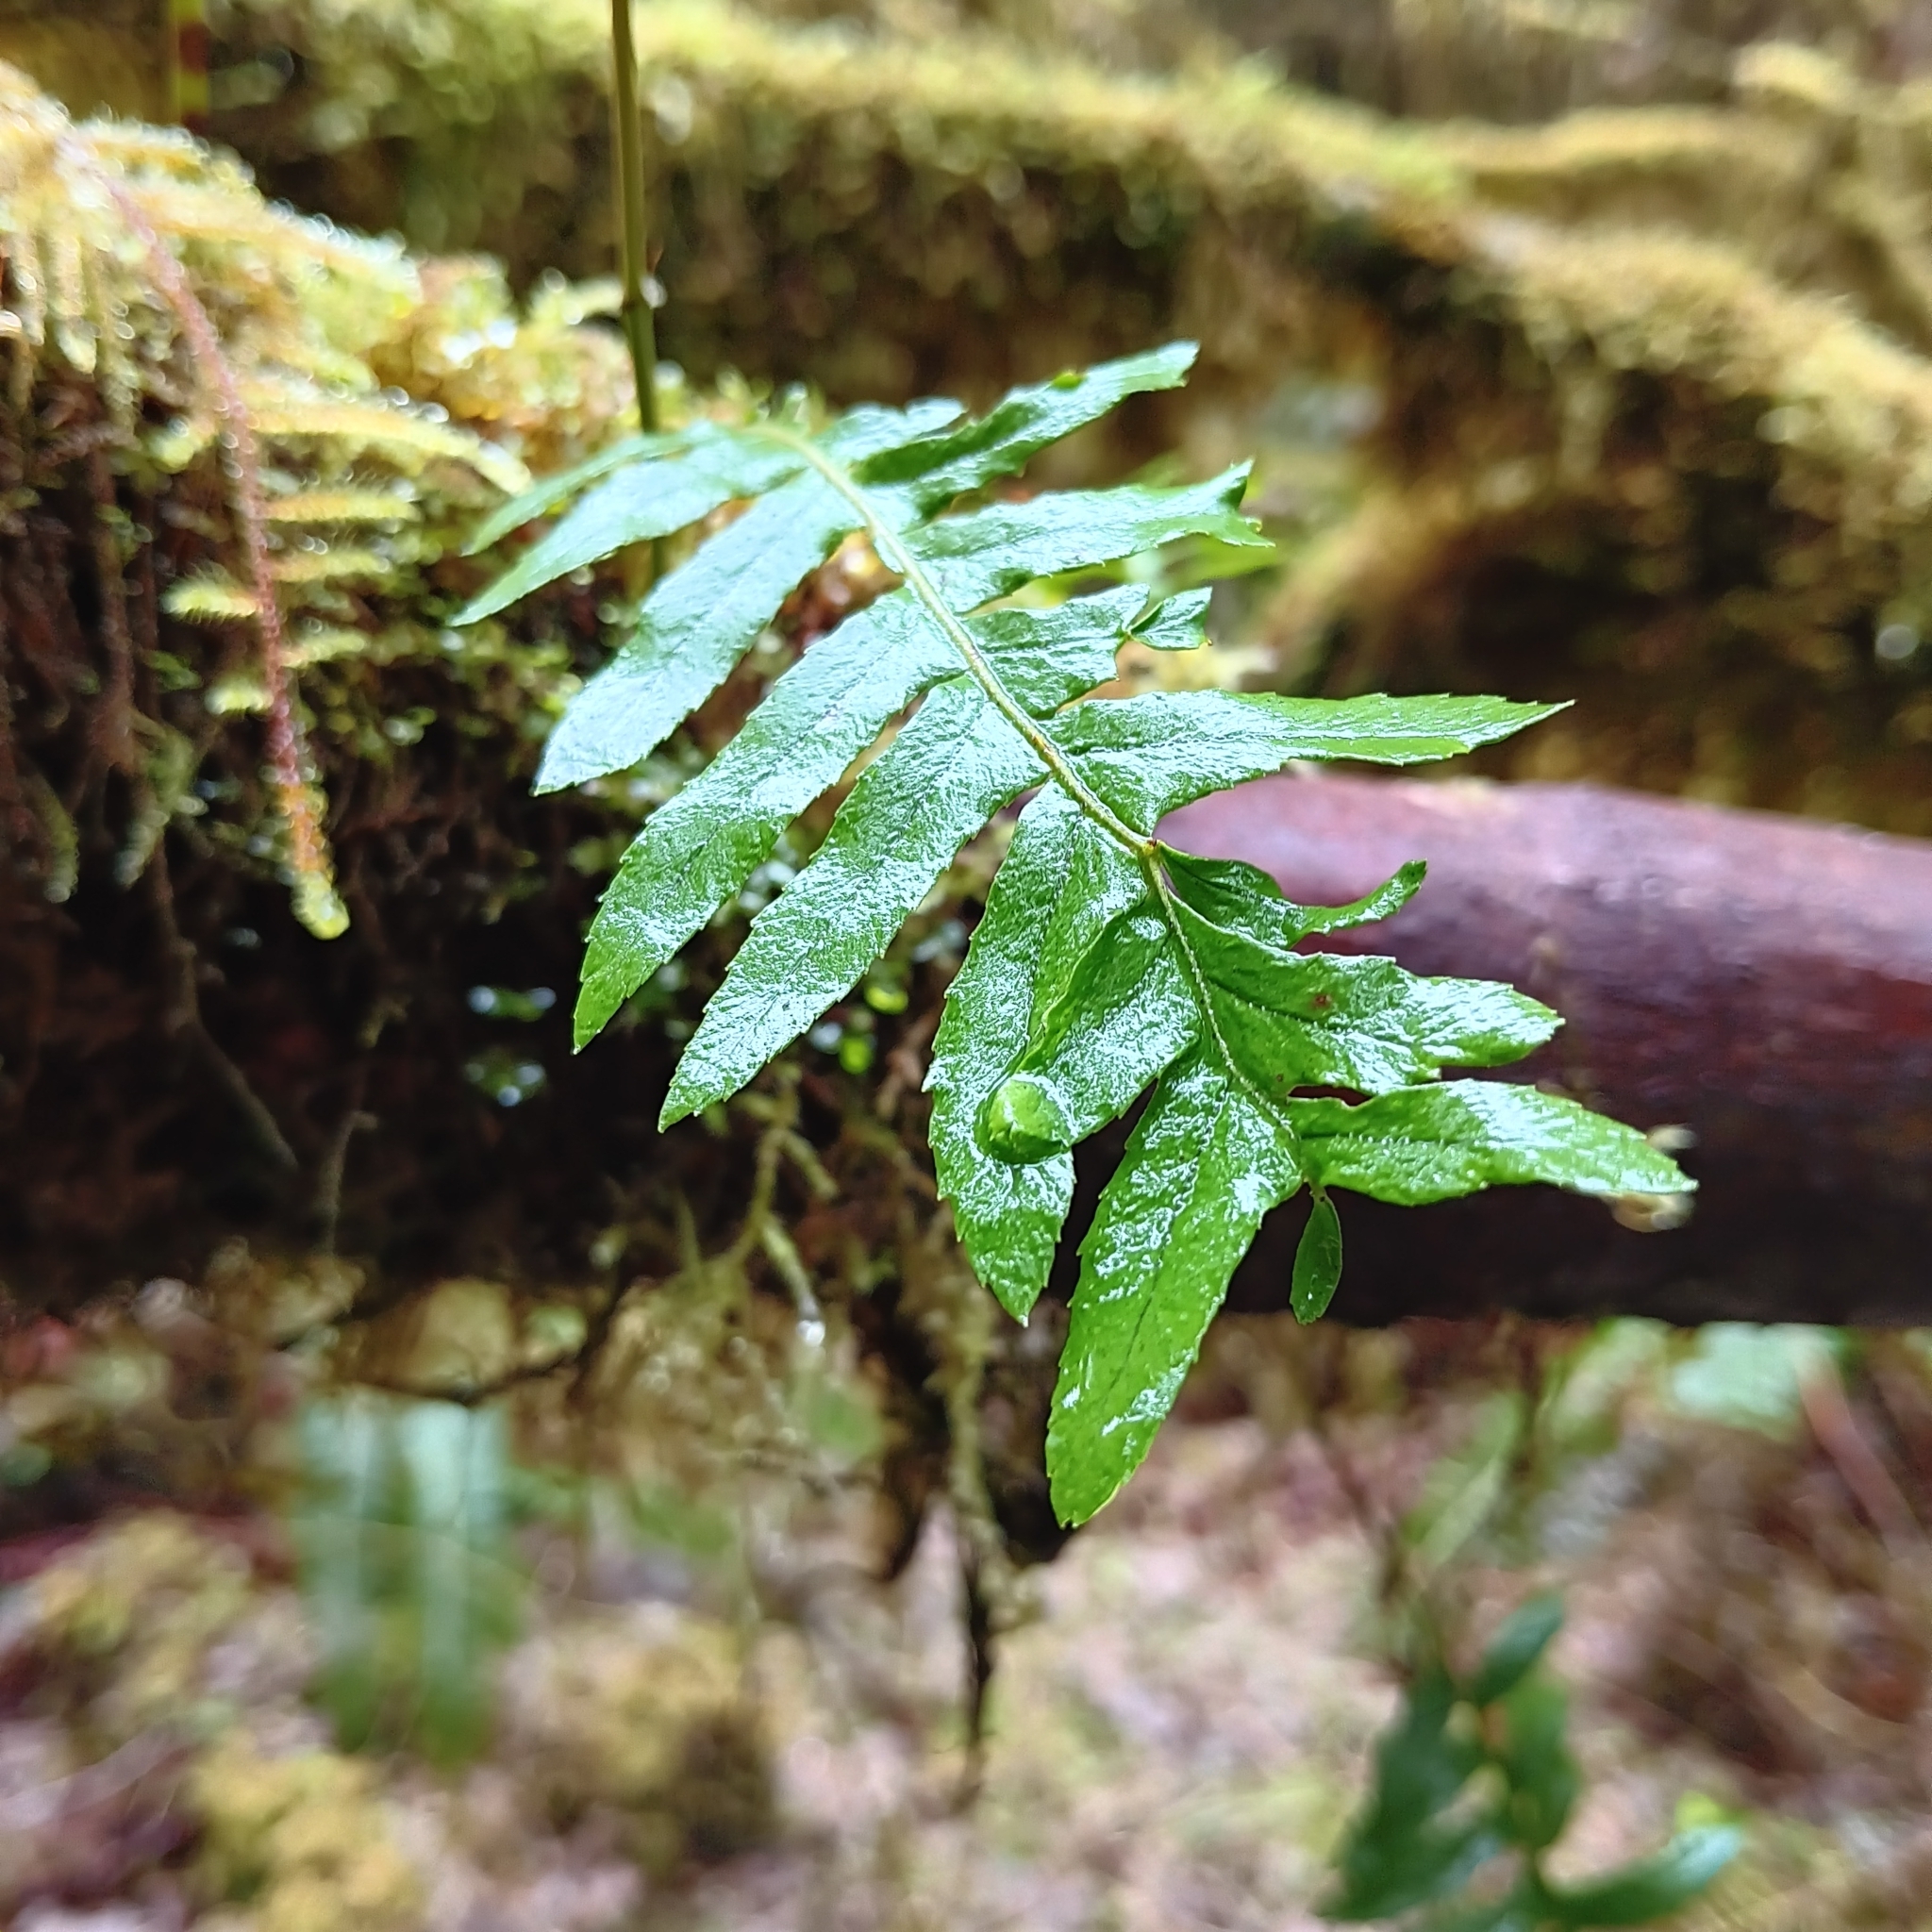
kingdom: Plantae
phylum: Tracheophyta
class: Polypodiopsida
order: Polypodiales
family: Polypodiaceae
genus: Polypodium
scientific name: Polypodium glycyrrhiza
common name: Licorice fern
